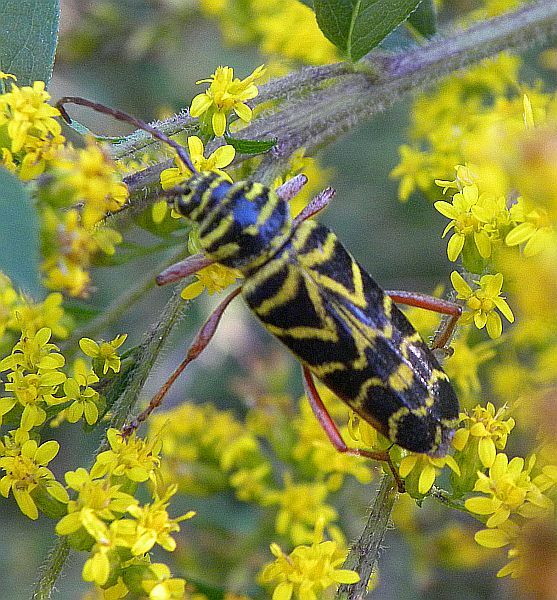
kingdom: Animalia
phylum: Arthropoda
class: Insecta
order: Coleoptera
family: Cerambycidae
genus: Megacyllene
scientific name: Megacyllene robiniae
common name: Locust borer
